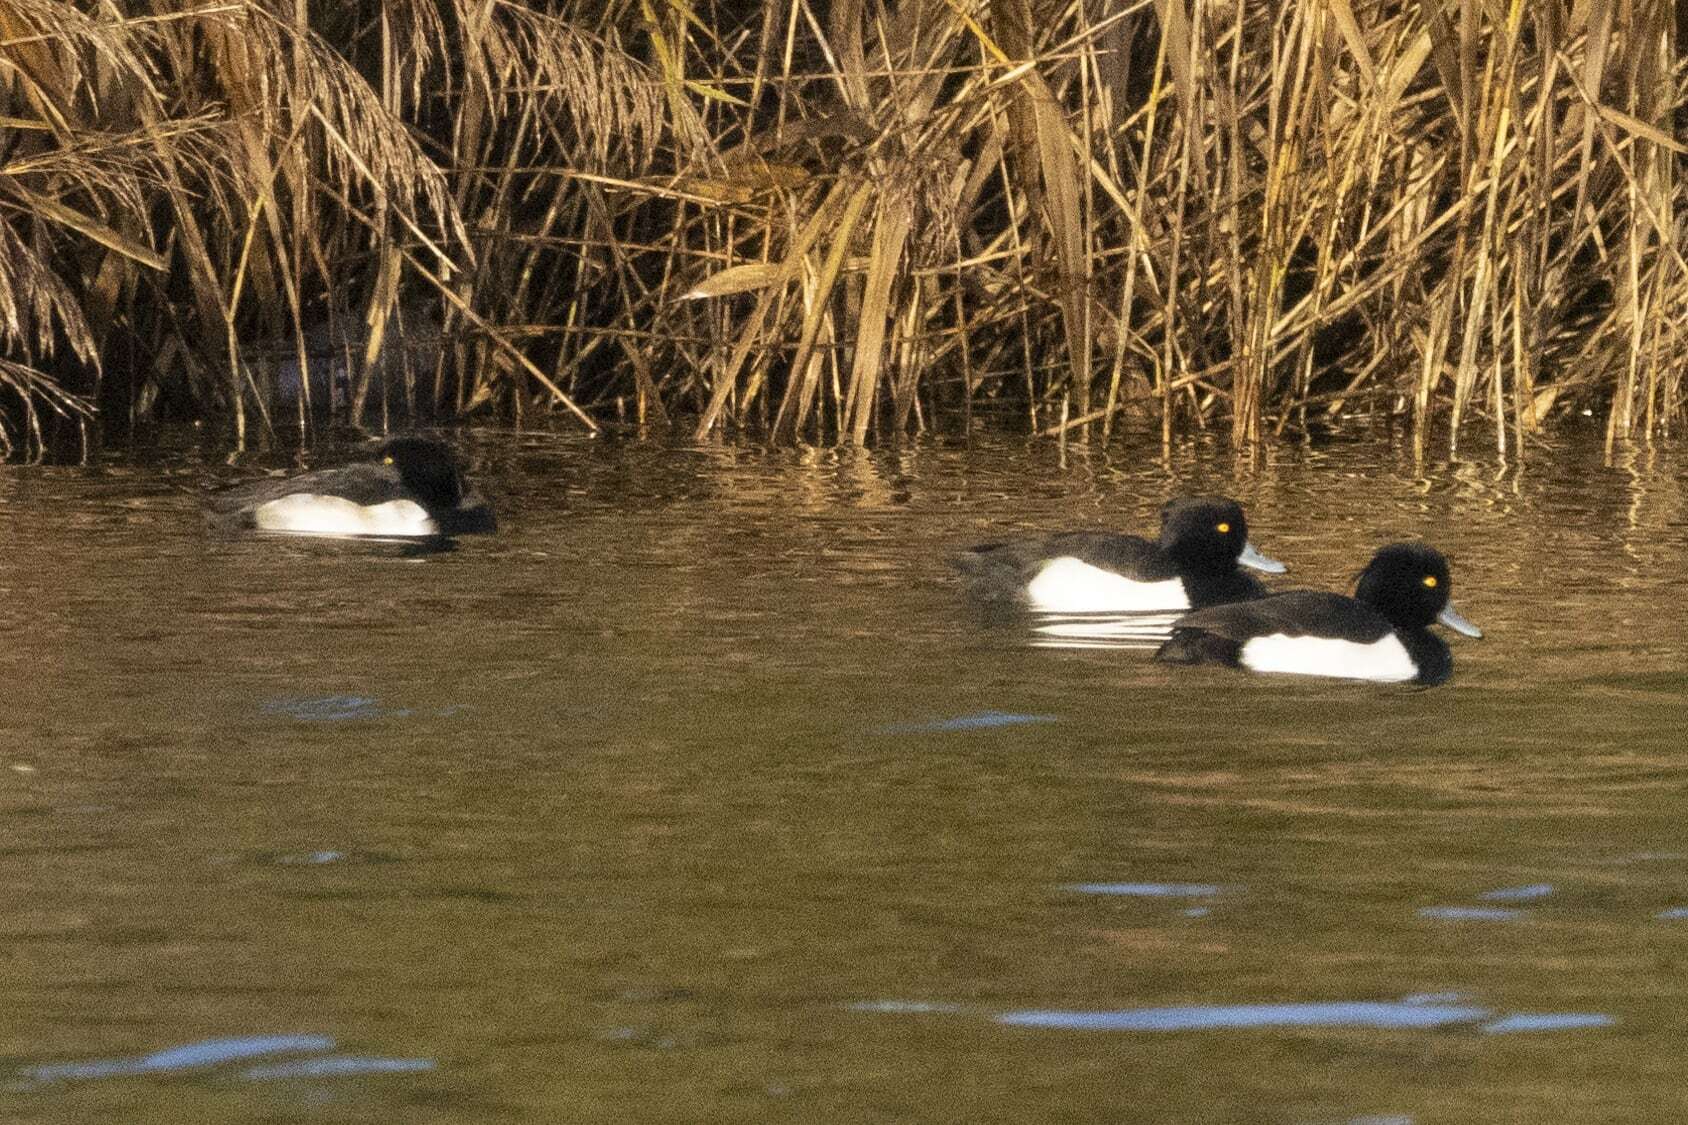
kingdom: Animalia
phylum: Chordata
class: Aves
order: Anseriformes
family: Anatidae
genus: Aythya
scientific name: Aythya fuligula
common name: Tufted duck
